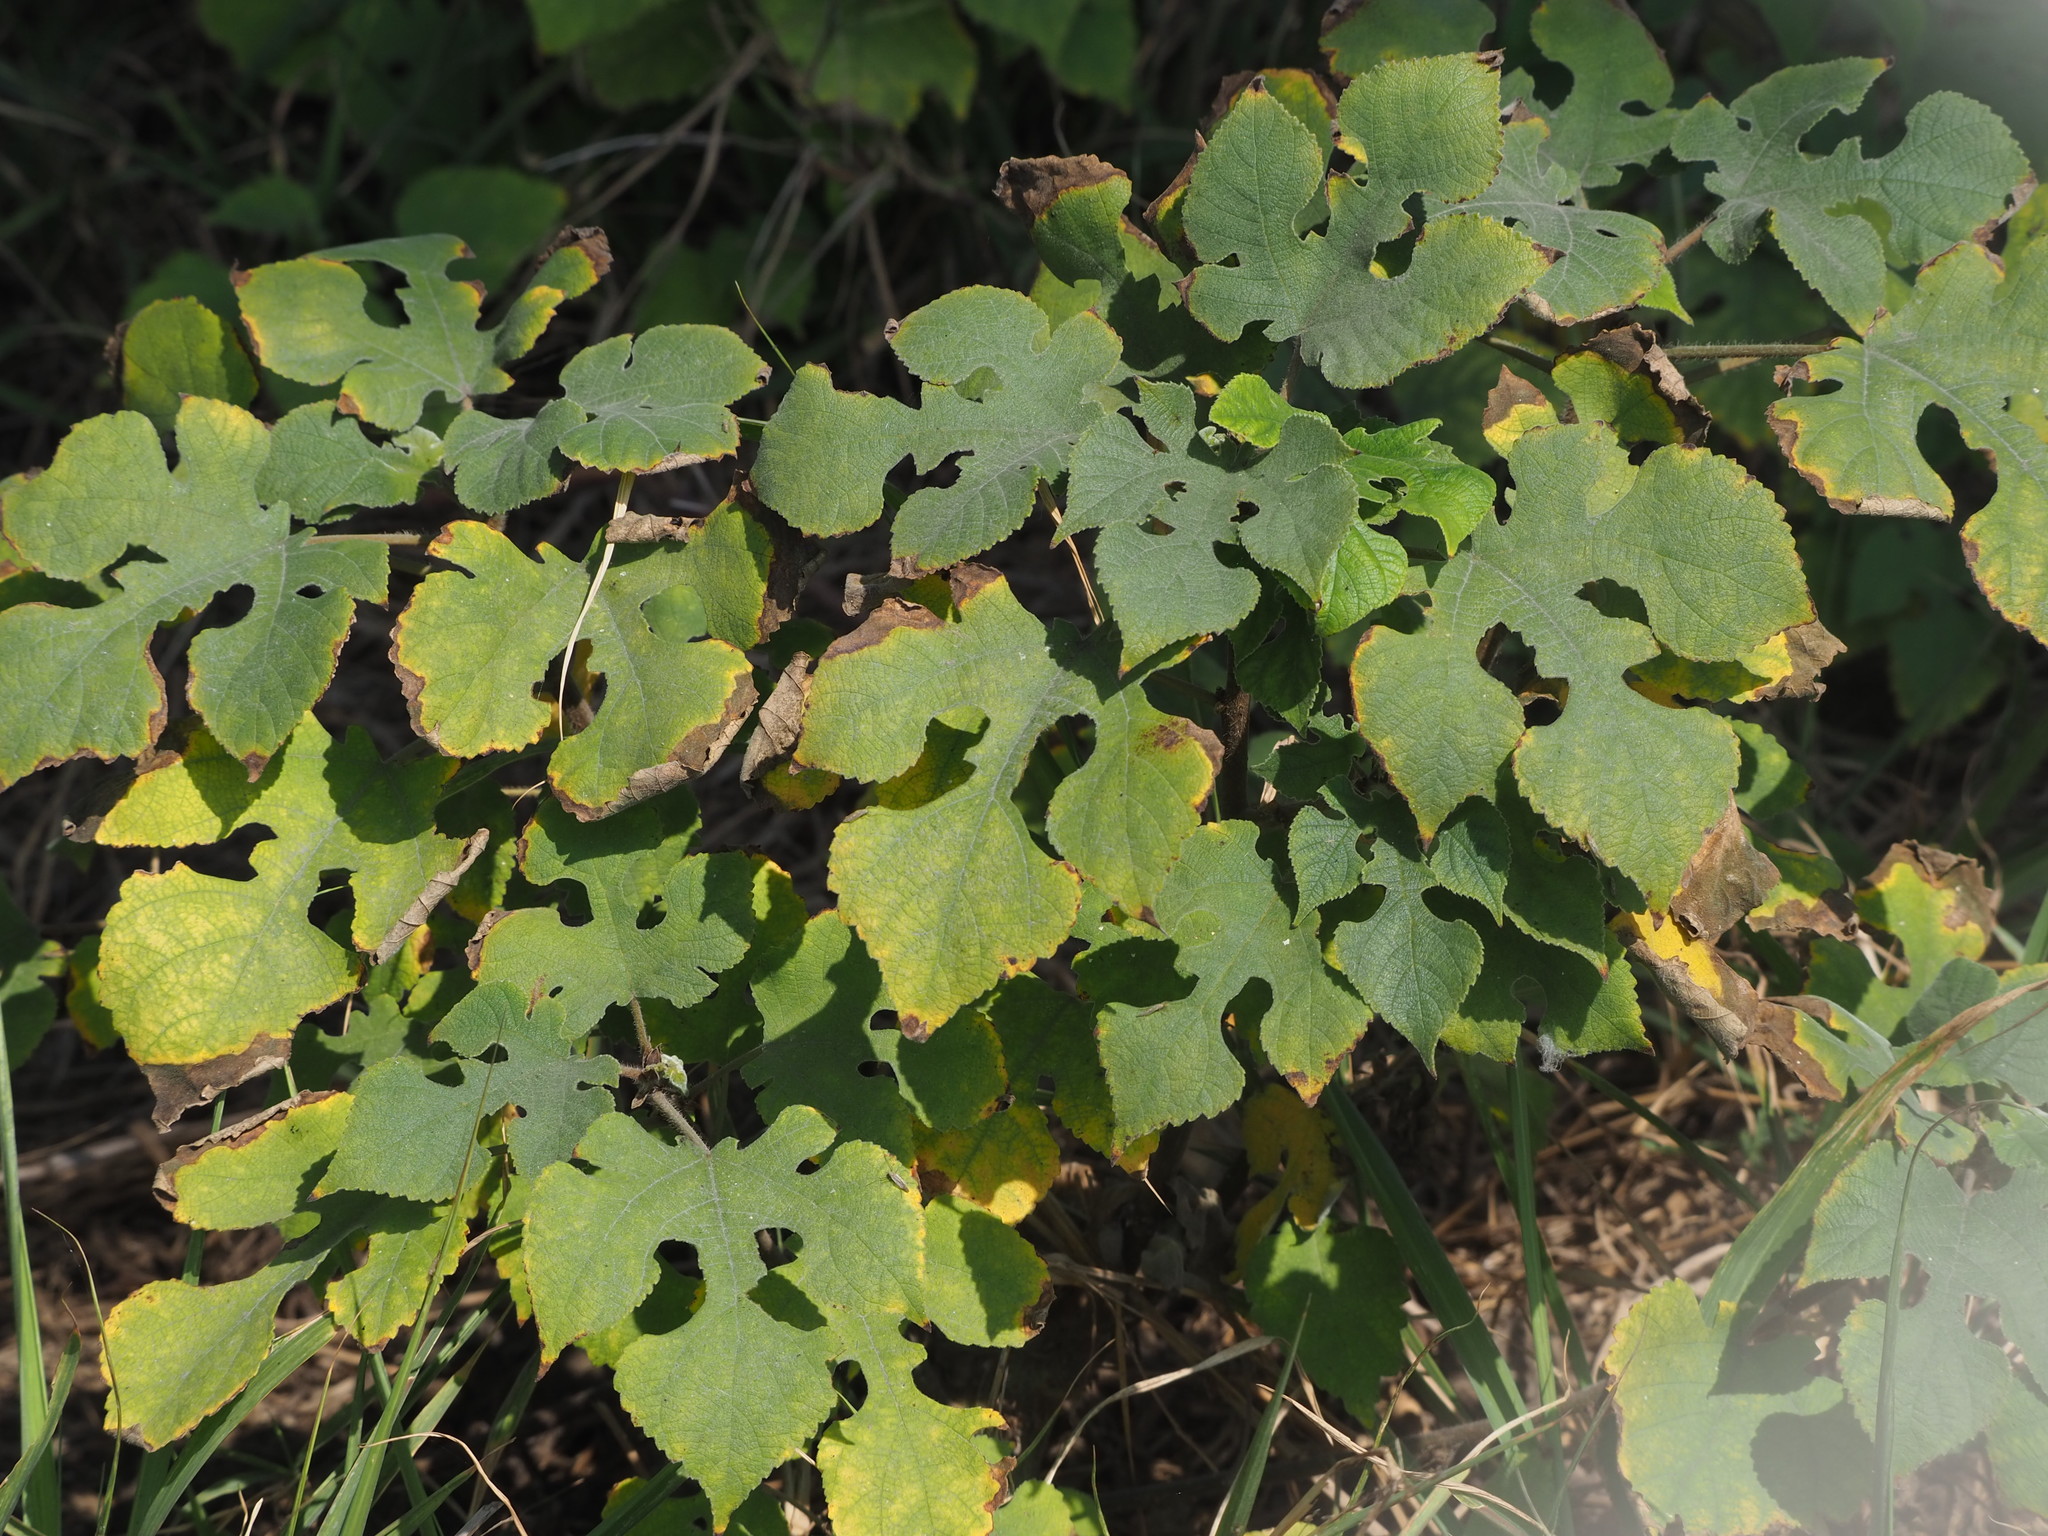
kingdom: Plantae
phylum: Tracheophyta
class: Magnoliopsida
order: Rosales
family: Moraceae
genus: Broussonetia
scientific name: Broussonetia papyrifera
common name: Paper mulberry
